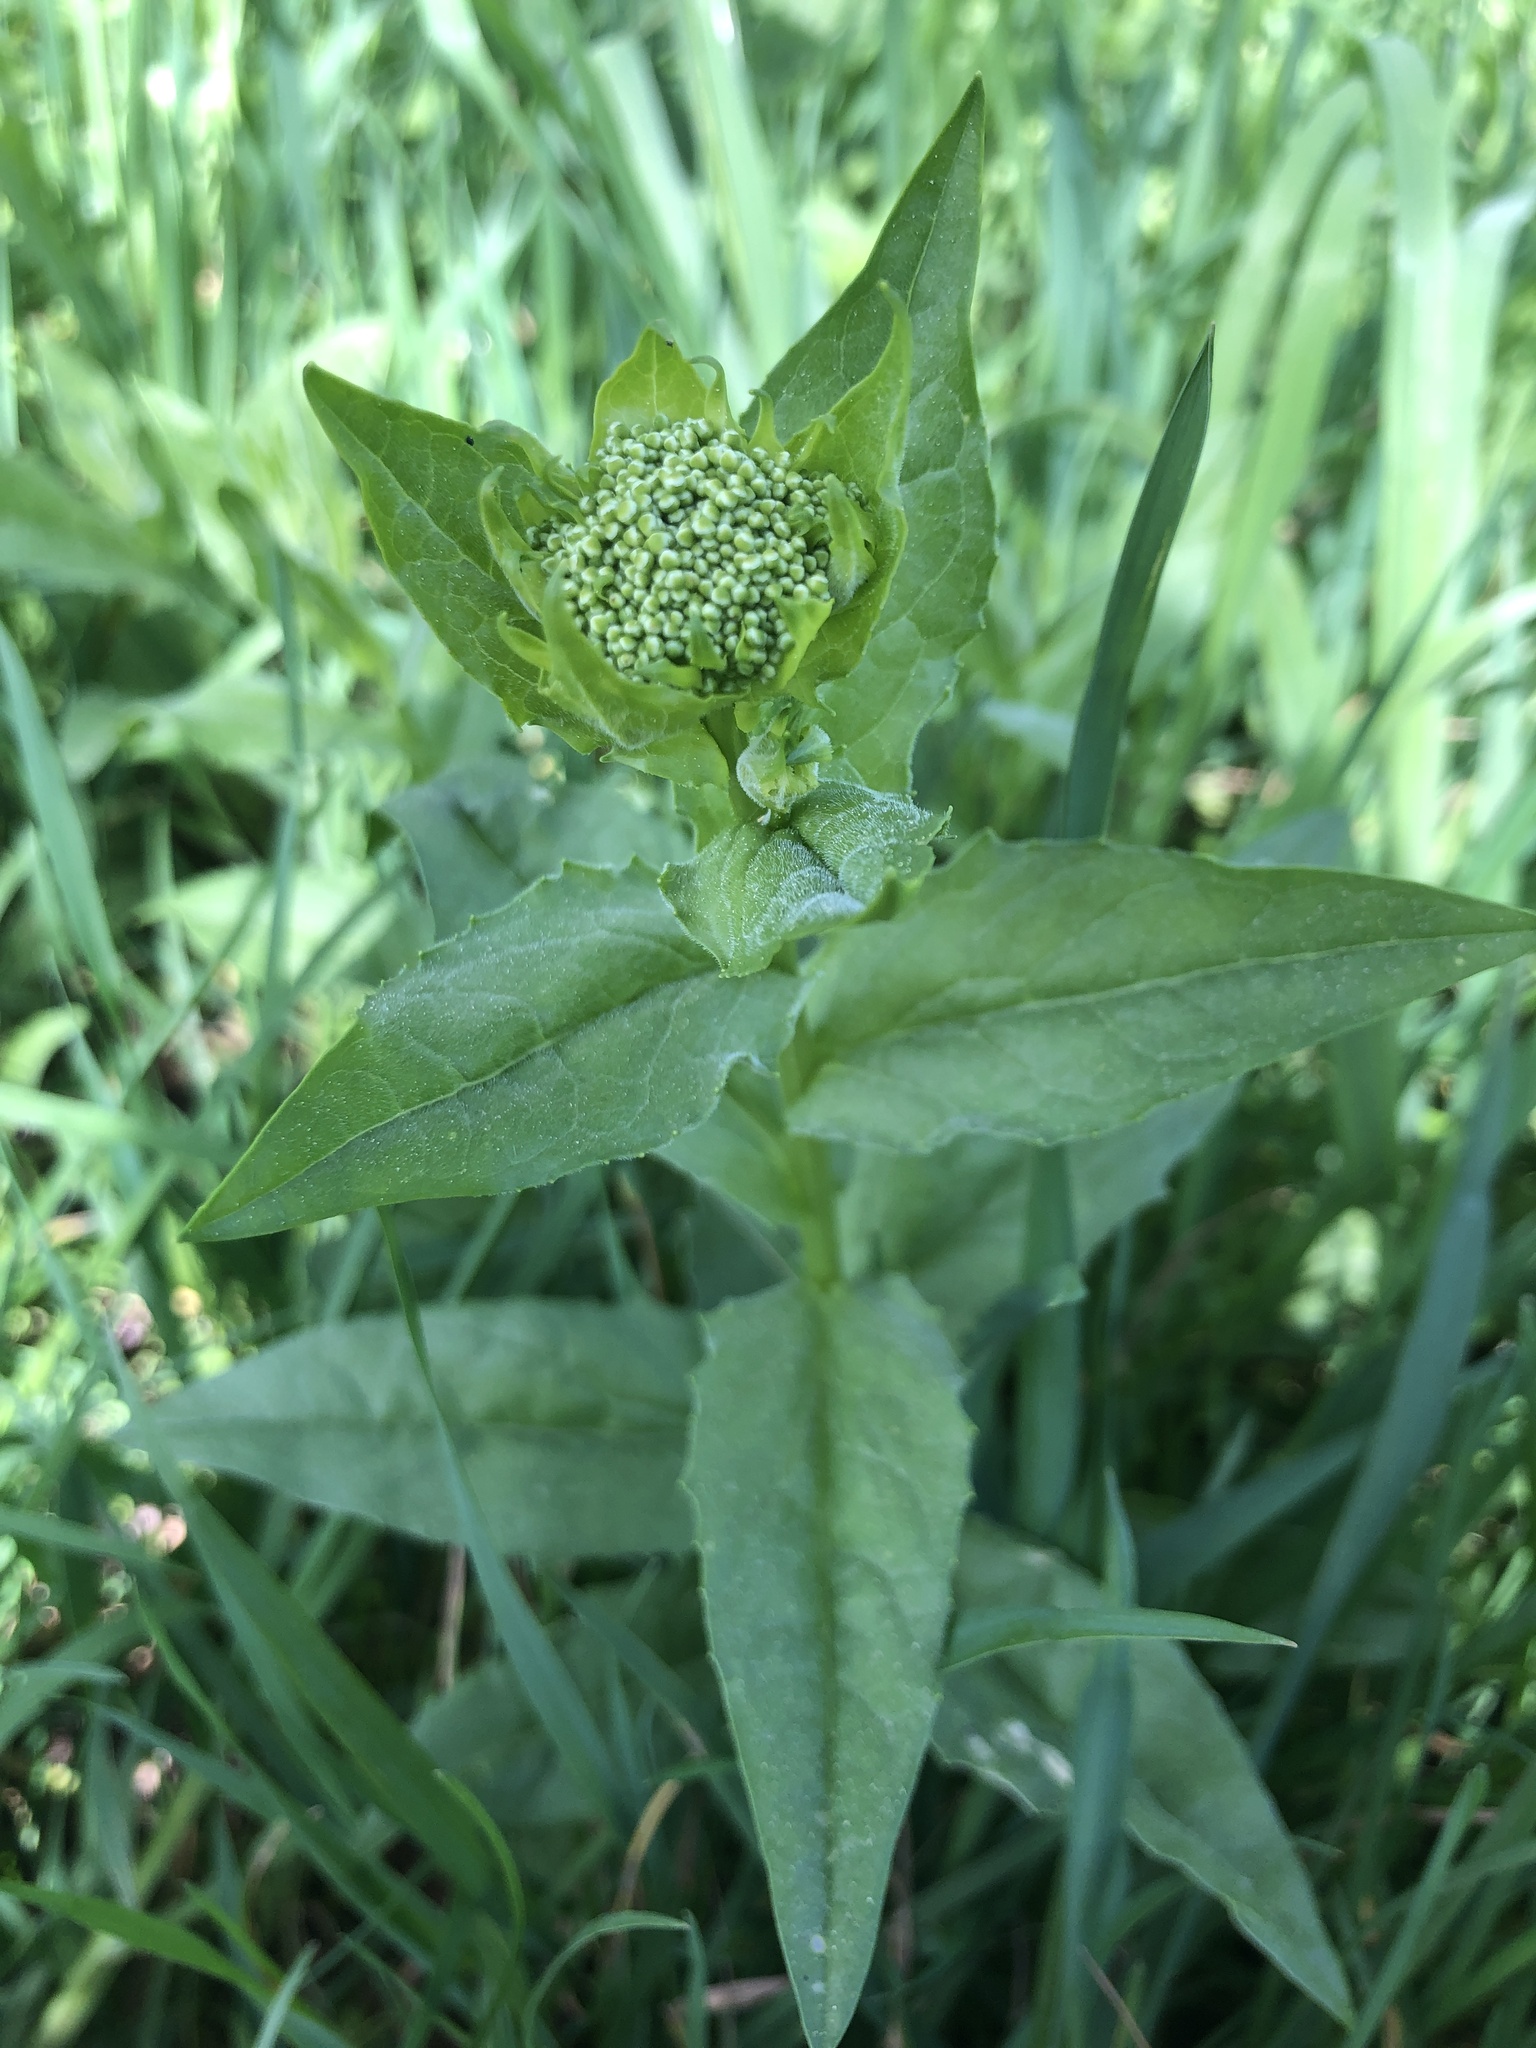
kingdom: Plantae
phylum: Tracheophyta
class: Magnoliopsida
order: Brassicales
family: Brassicaceae
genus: Lepidium
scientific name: Lepidium draba
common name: Hoary cress
